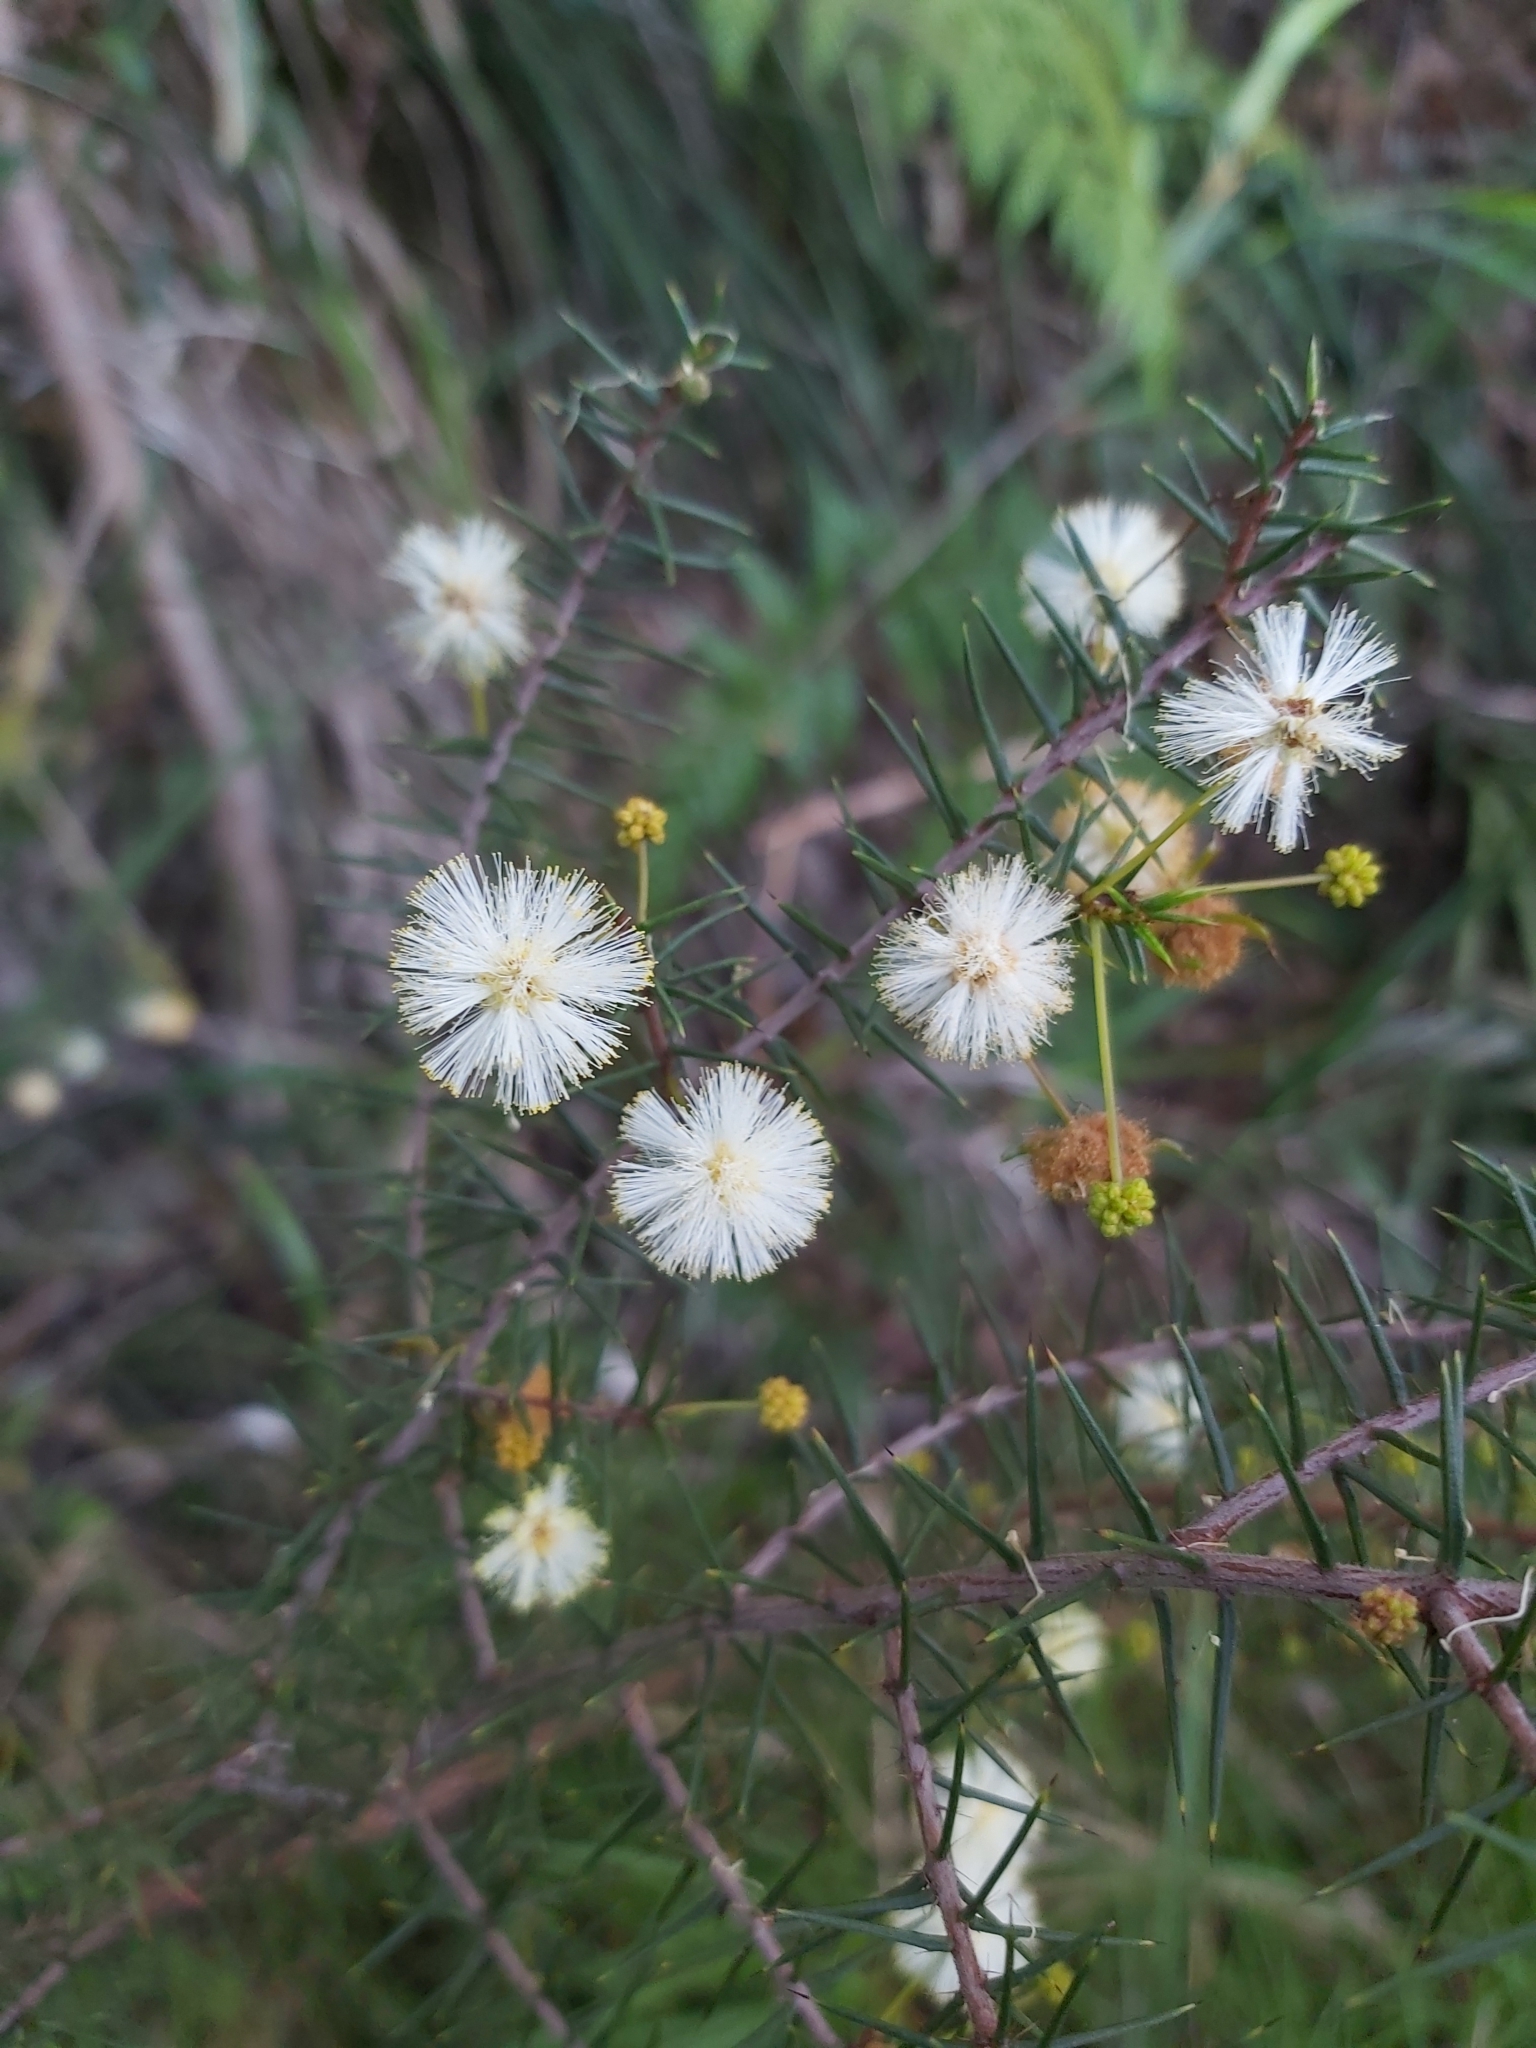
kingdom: Plantae
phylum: Tracheophyta
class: Magnoliopsida
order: Fabales
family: Fabaceae
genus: Acacia
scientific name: Acacia ulicifolia
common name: Juniper wattle
